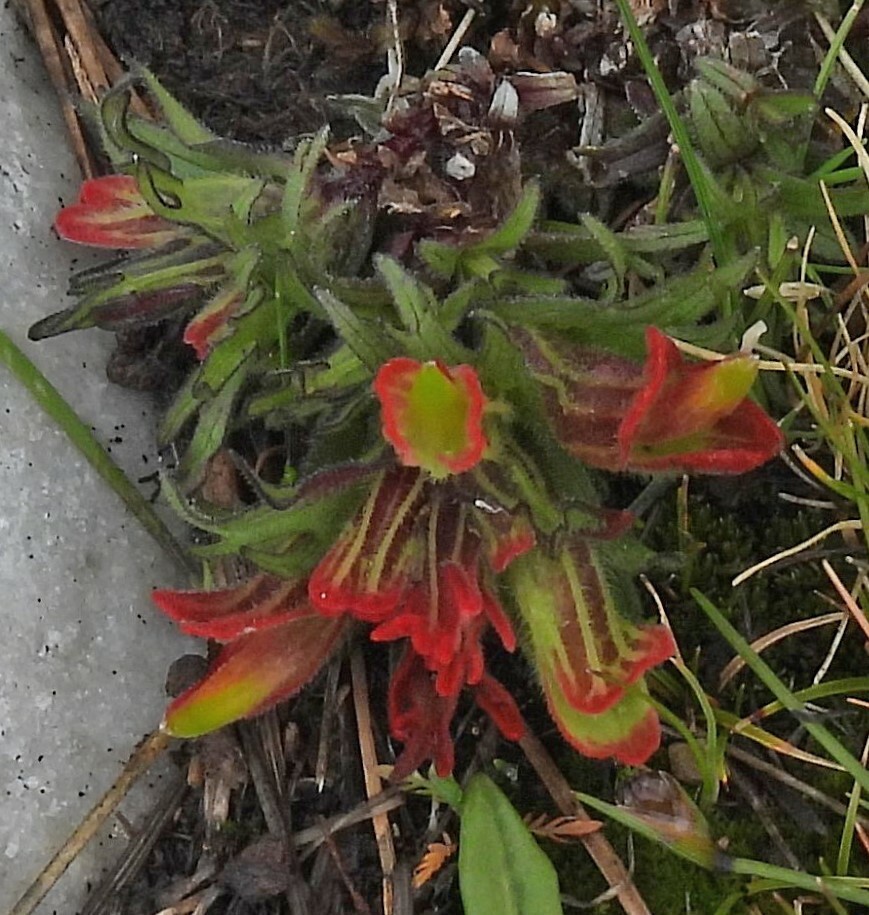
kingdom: Plantae
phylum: Tracheophyta
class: Magnoliopsida
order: Lamiales
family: Orobanchaceae
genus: Castilleja
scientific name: Castilleja pumila
